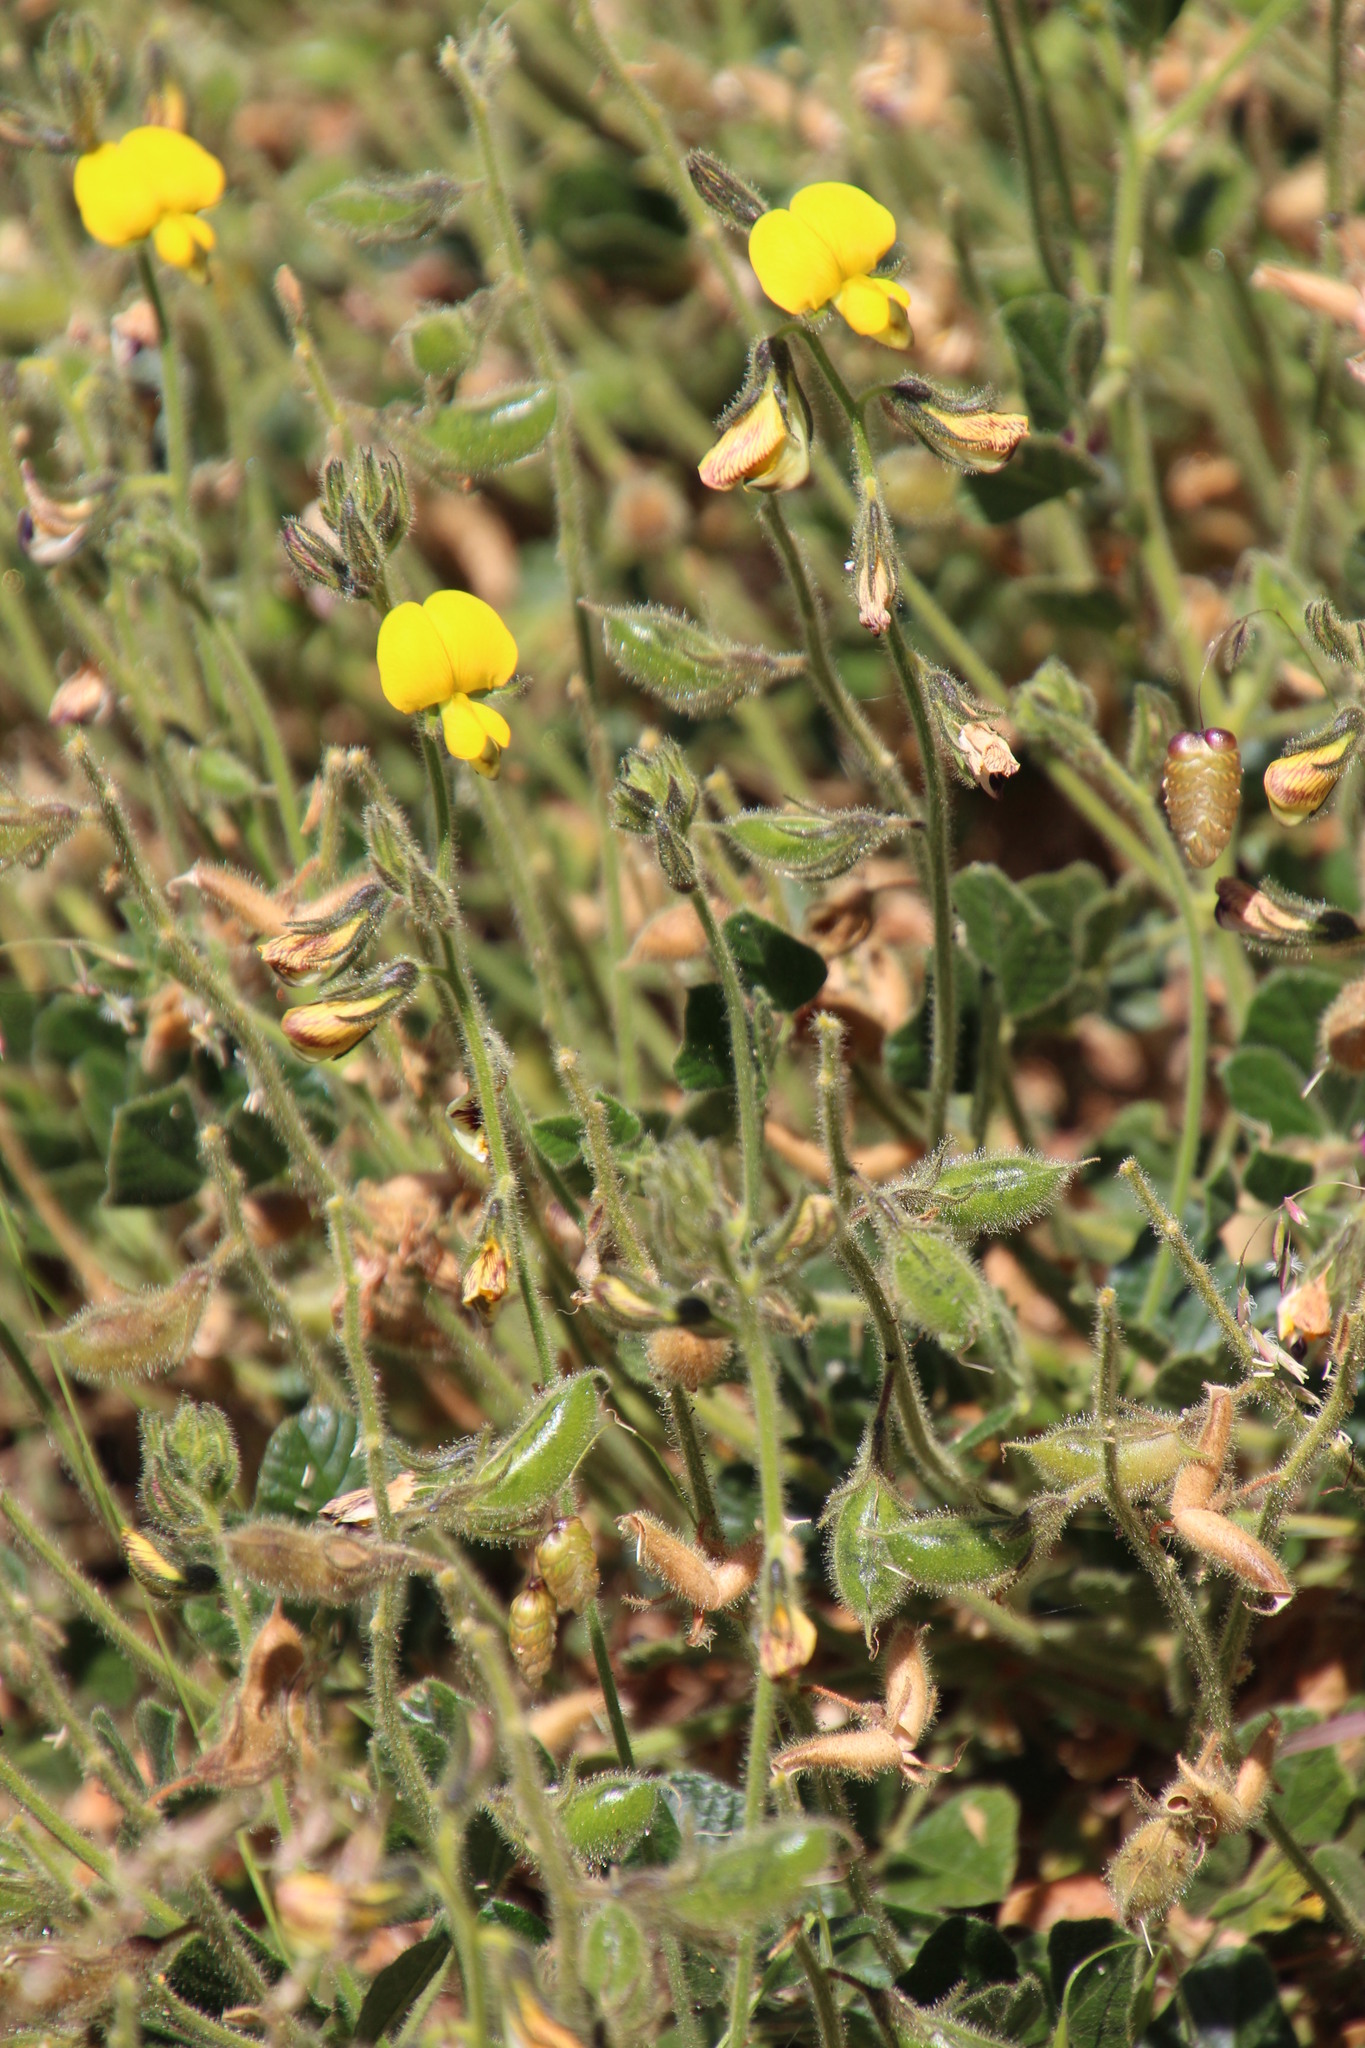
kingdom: Plantae
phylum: Tracheophyta
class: Magnoliopsida
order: Fabales
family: Fabaceae
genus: Bolusafra
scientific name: Bolusafra bituminosa
